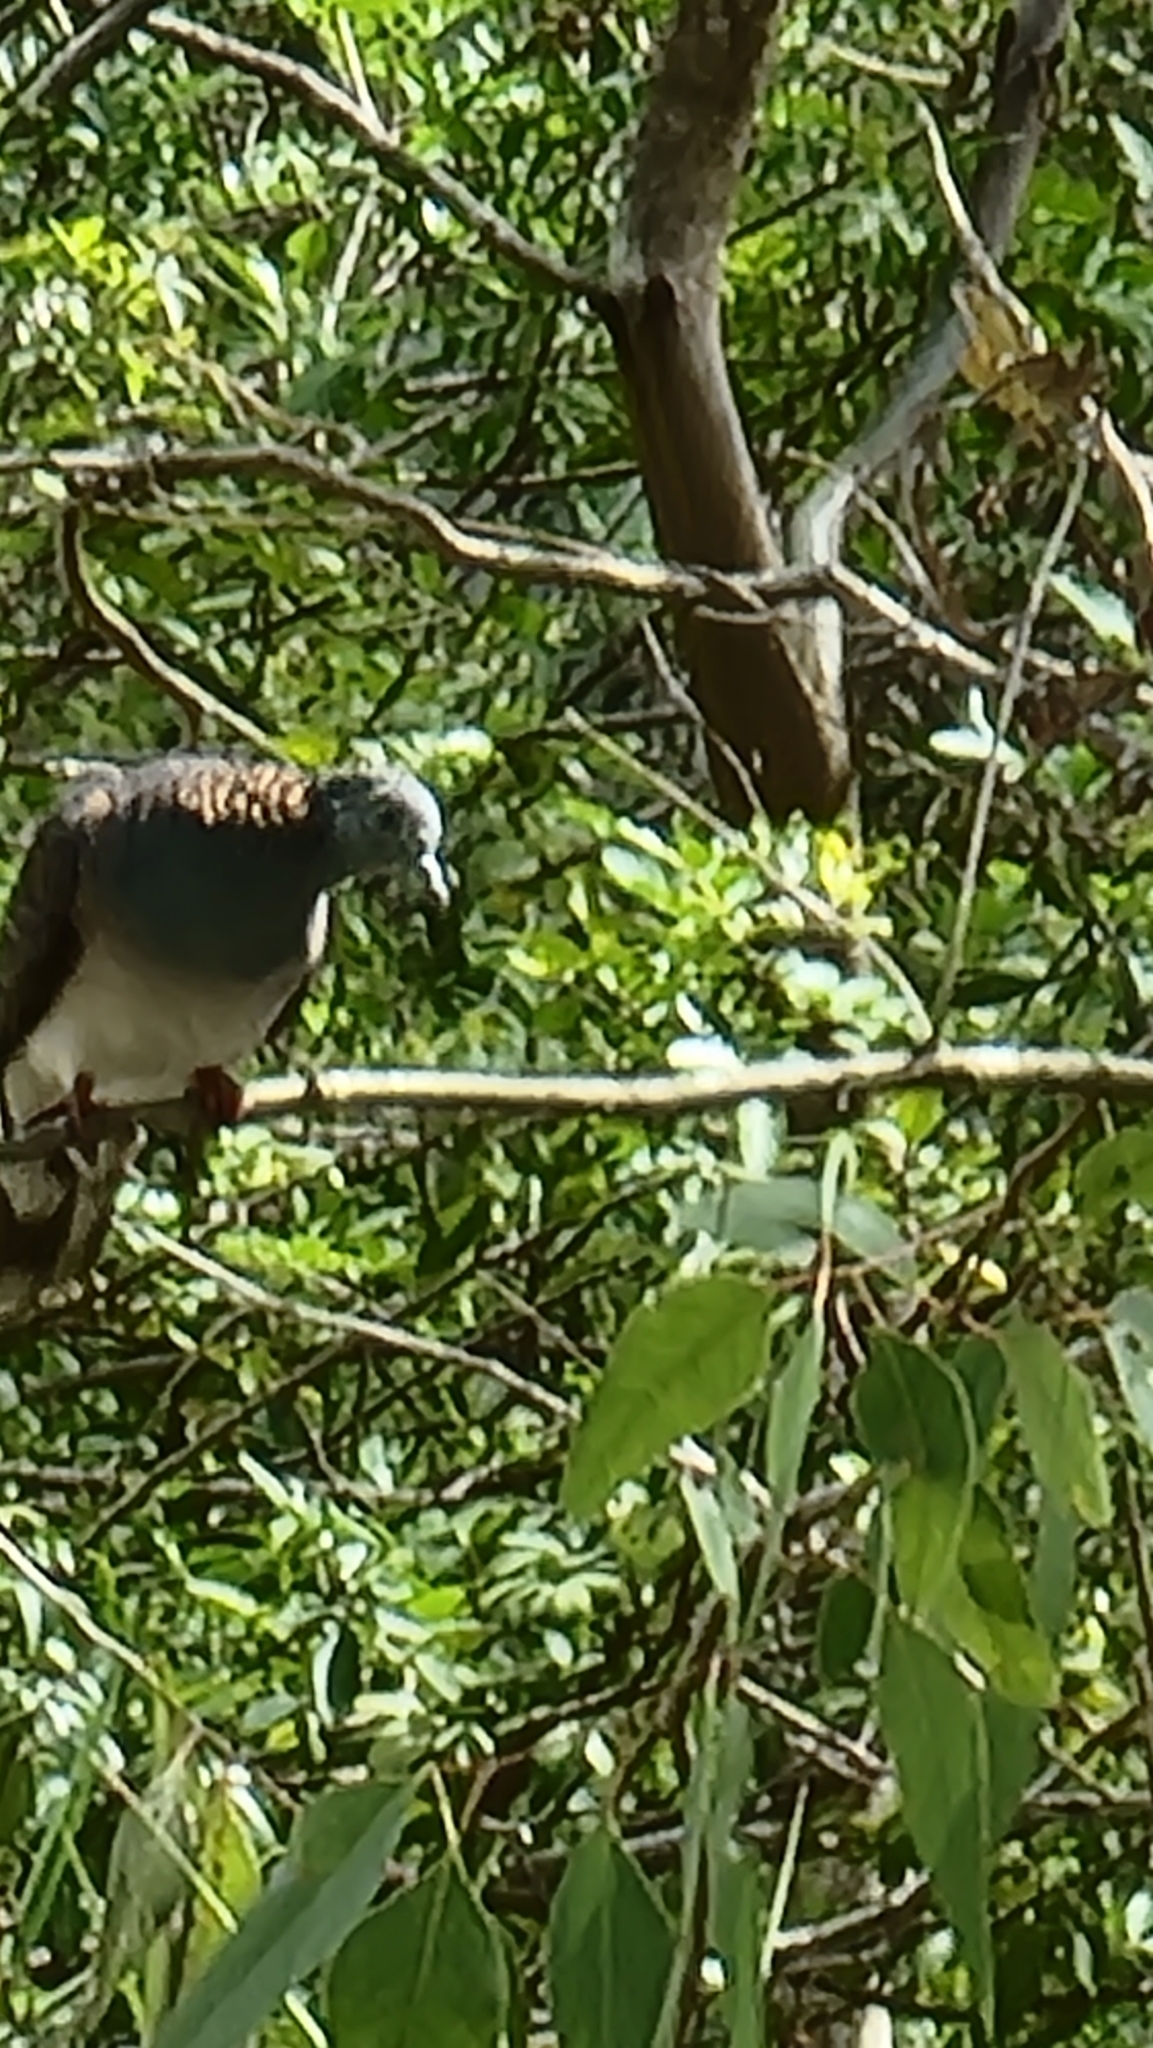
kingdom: Animalia
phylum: Chordata
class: Aves
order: Columbiformes
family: Columbidae
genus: Geopelia
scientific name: Geopelia humeralis
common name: Bar-shouldered dove
